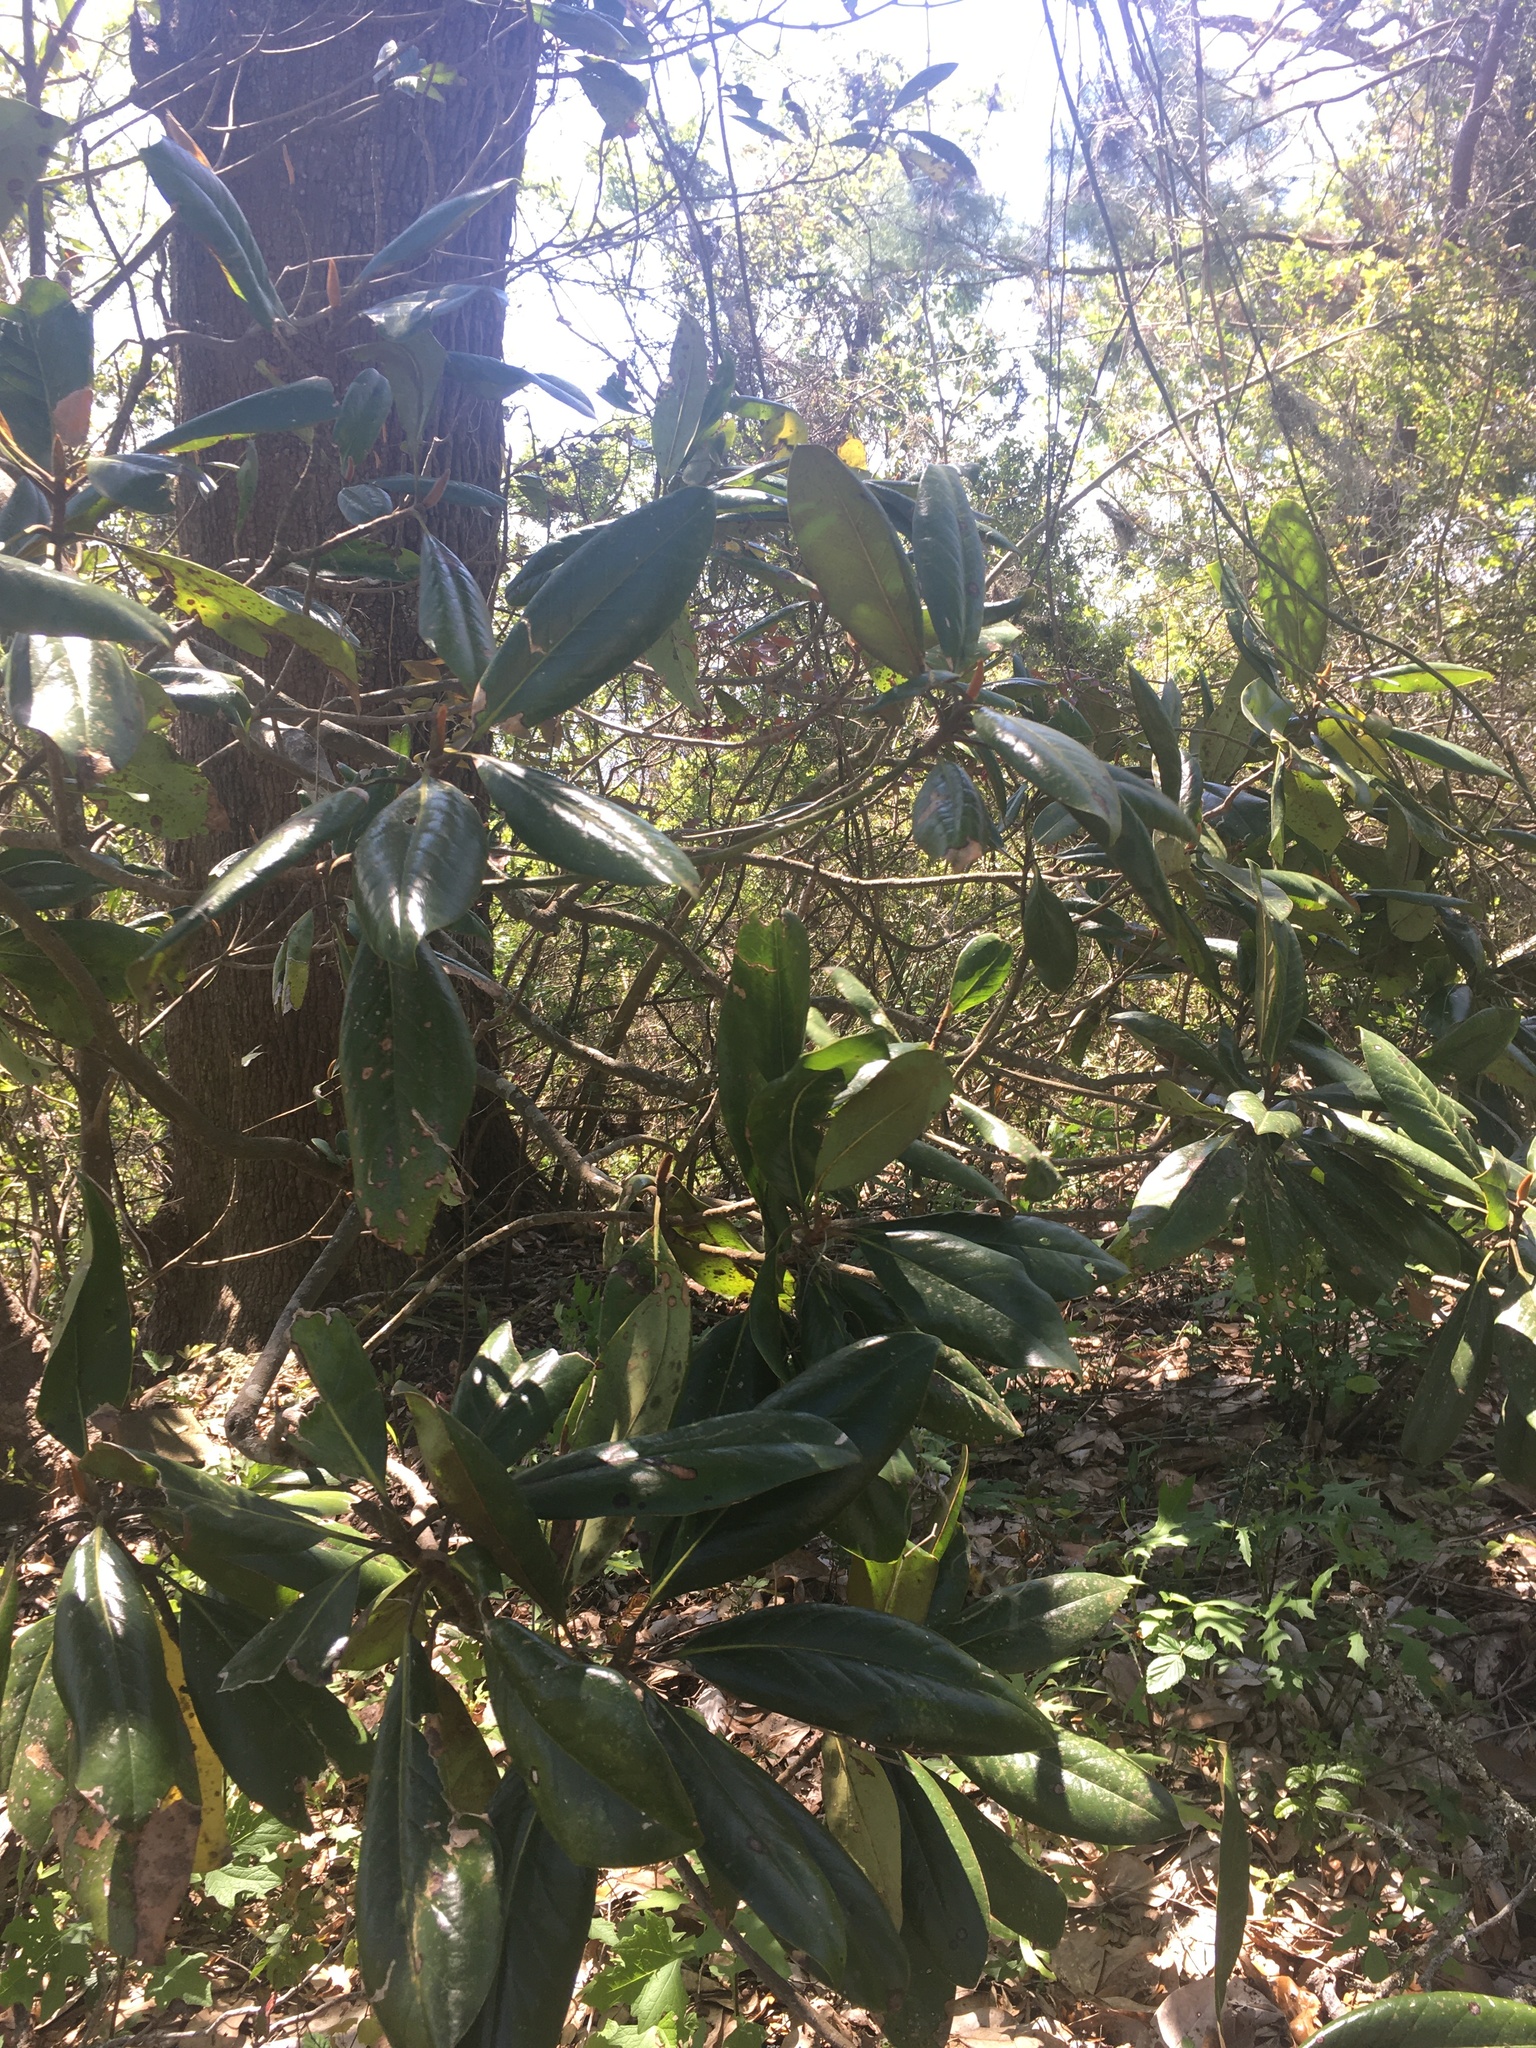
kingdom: Plantae
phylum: Tracheophyta
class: Magnoliopsida
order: Magnoliales
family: Magnoliaceae
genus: Magnolia
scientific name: Magnolia grandiflora
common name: Southern magnolia
